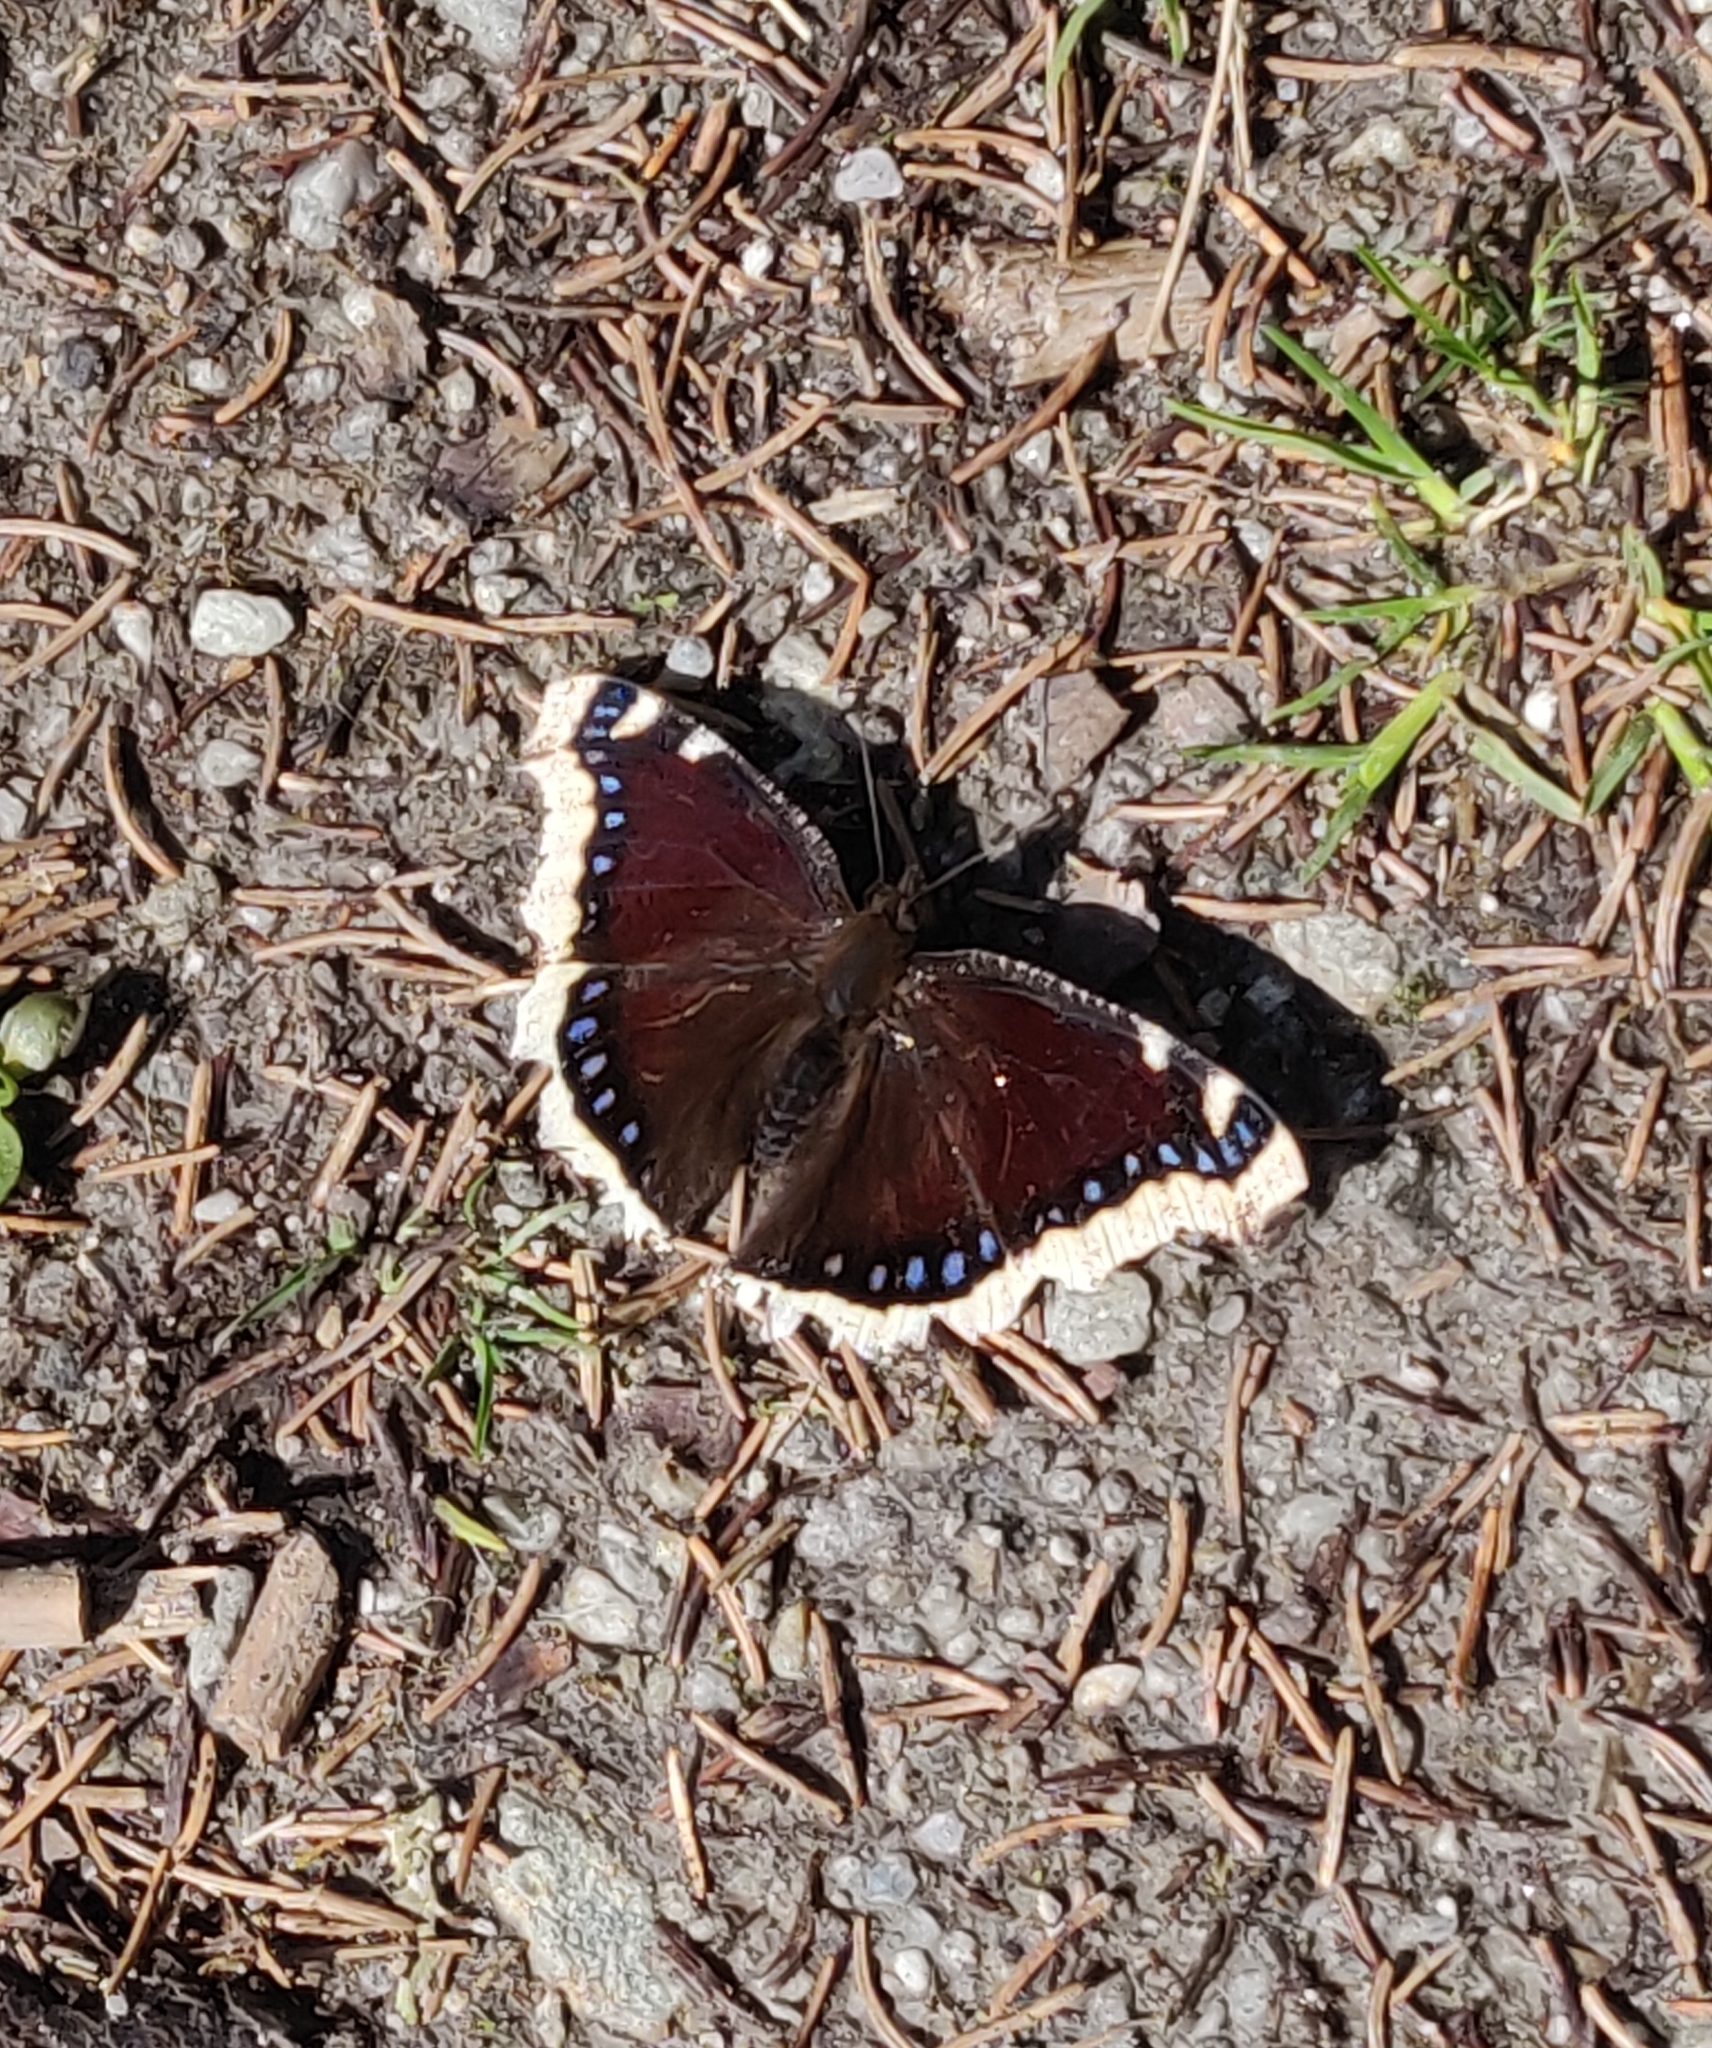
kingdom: Animalia
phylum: Arthropoda
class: Insecta
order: Lepidoptera
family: Nymphalidae
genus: Nymphalis
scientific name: Nymphalis antiopa
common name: Camberwell beauty
